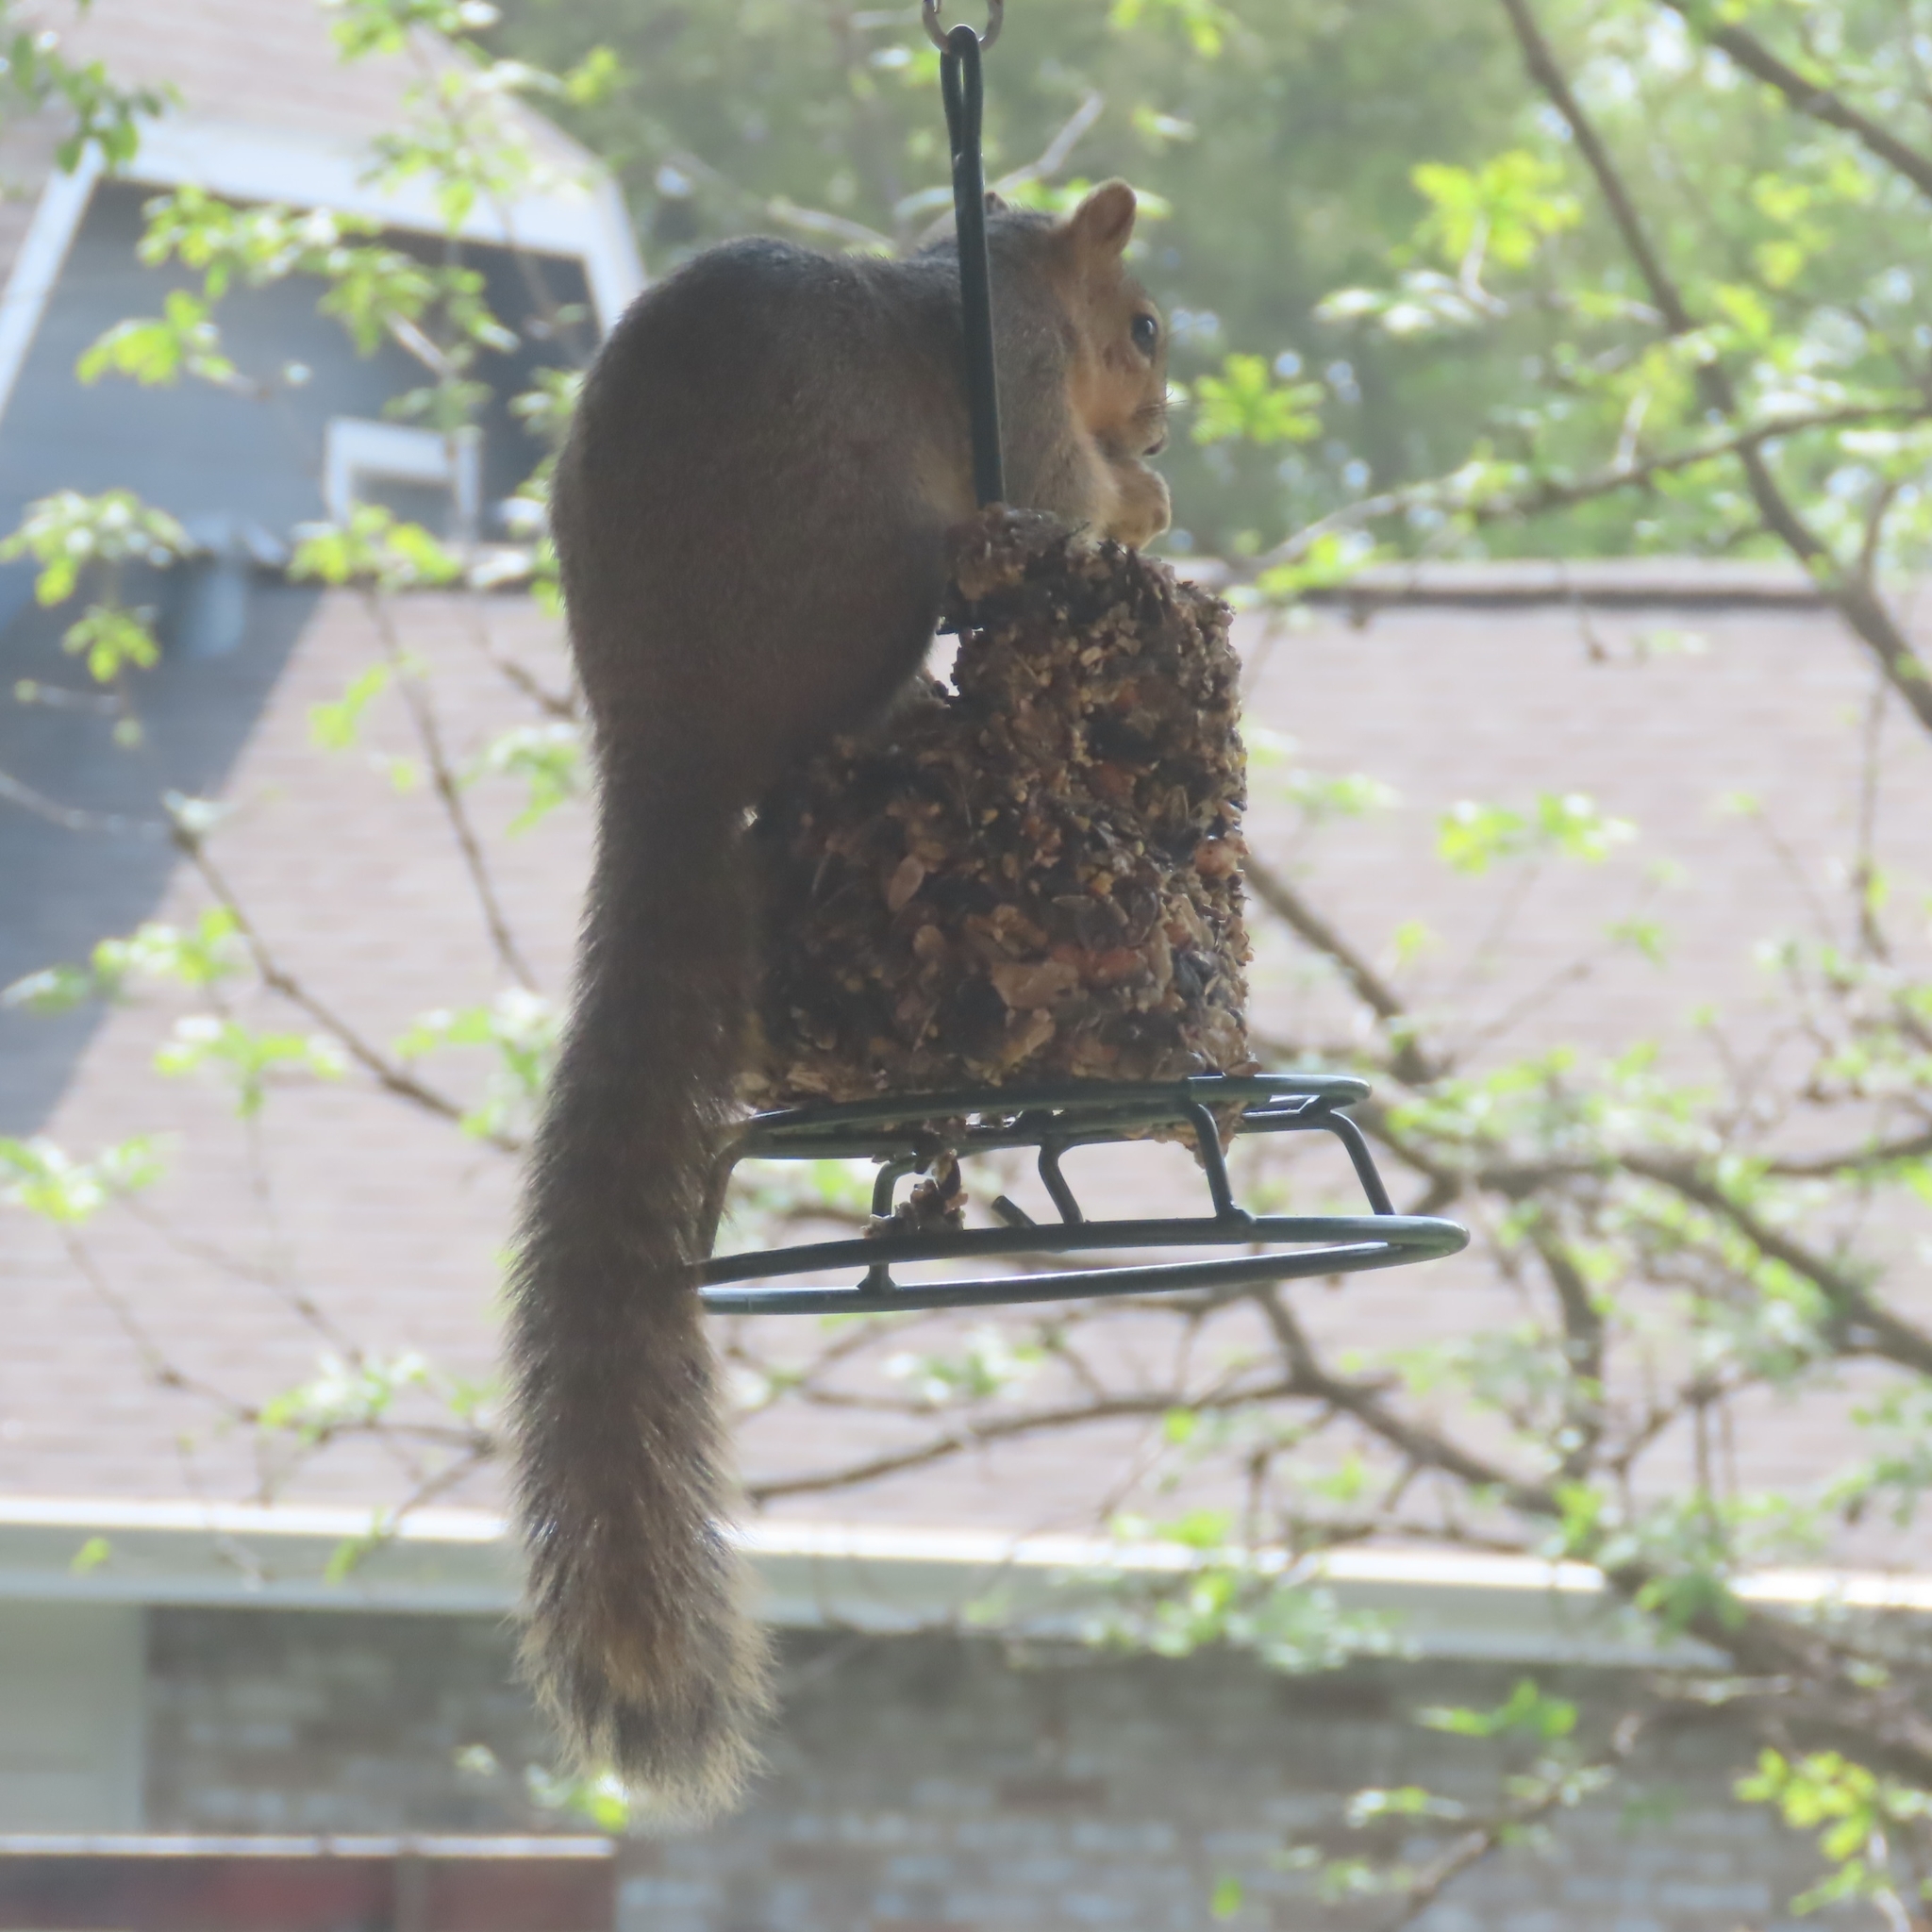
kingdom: Animalia
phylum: Chordata
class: Mammalia
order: Rodentia
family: Sciuridae
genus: Sciurus
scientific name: Sciurus niger
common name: Fox squirrel
